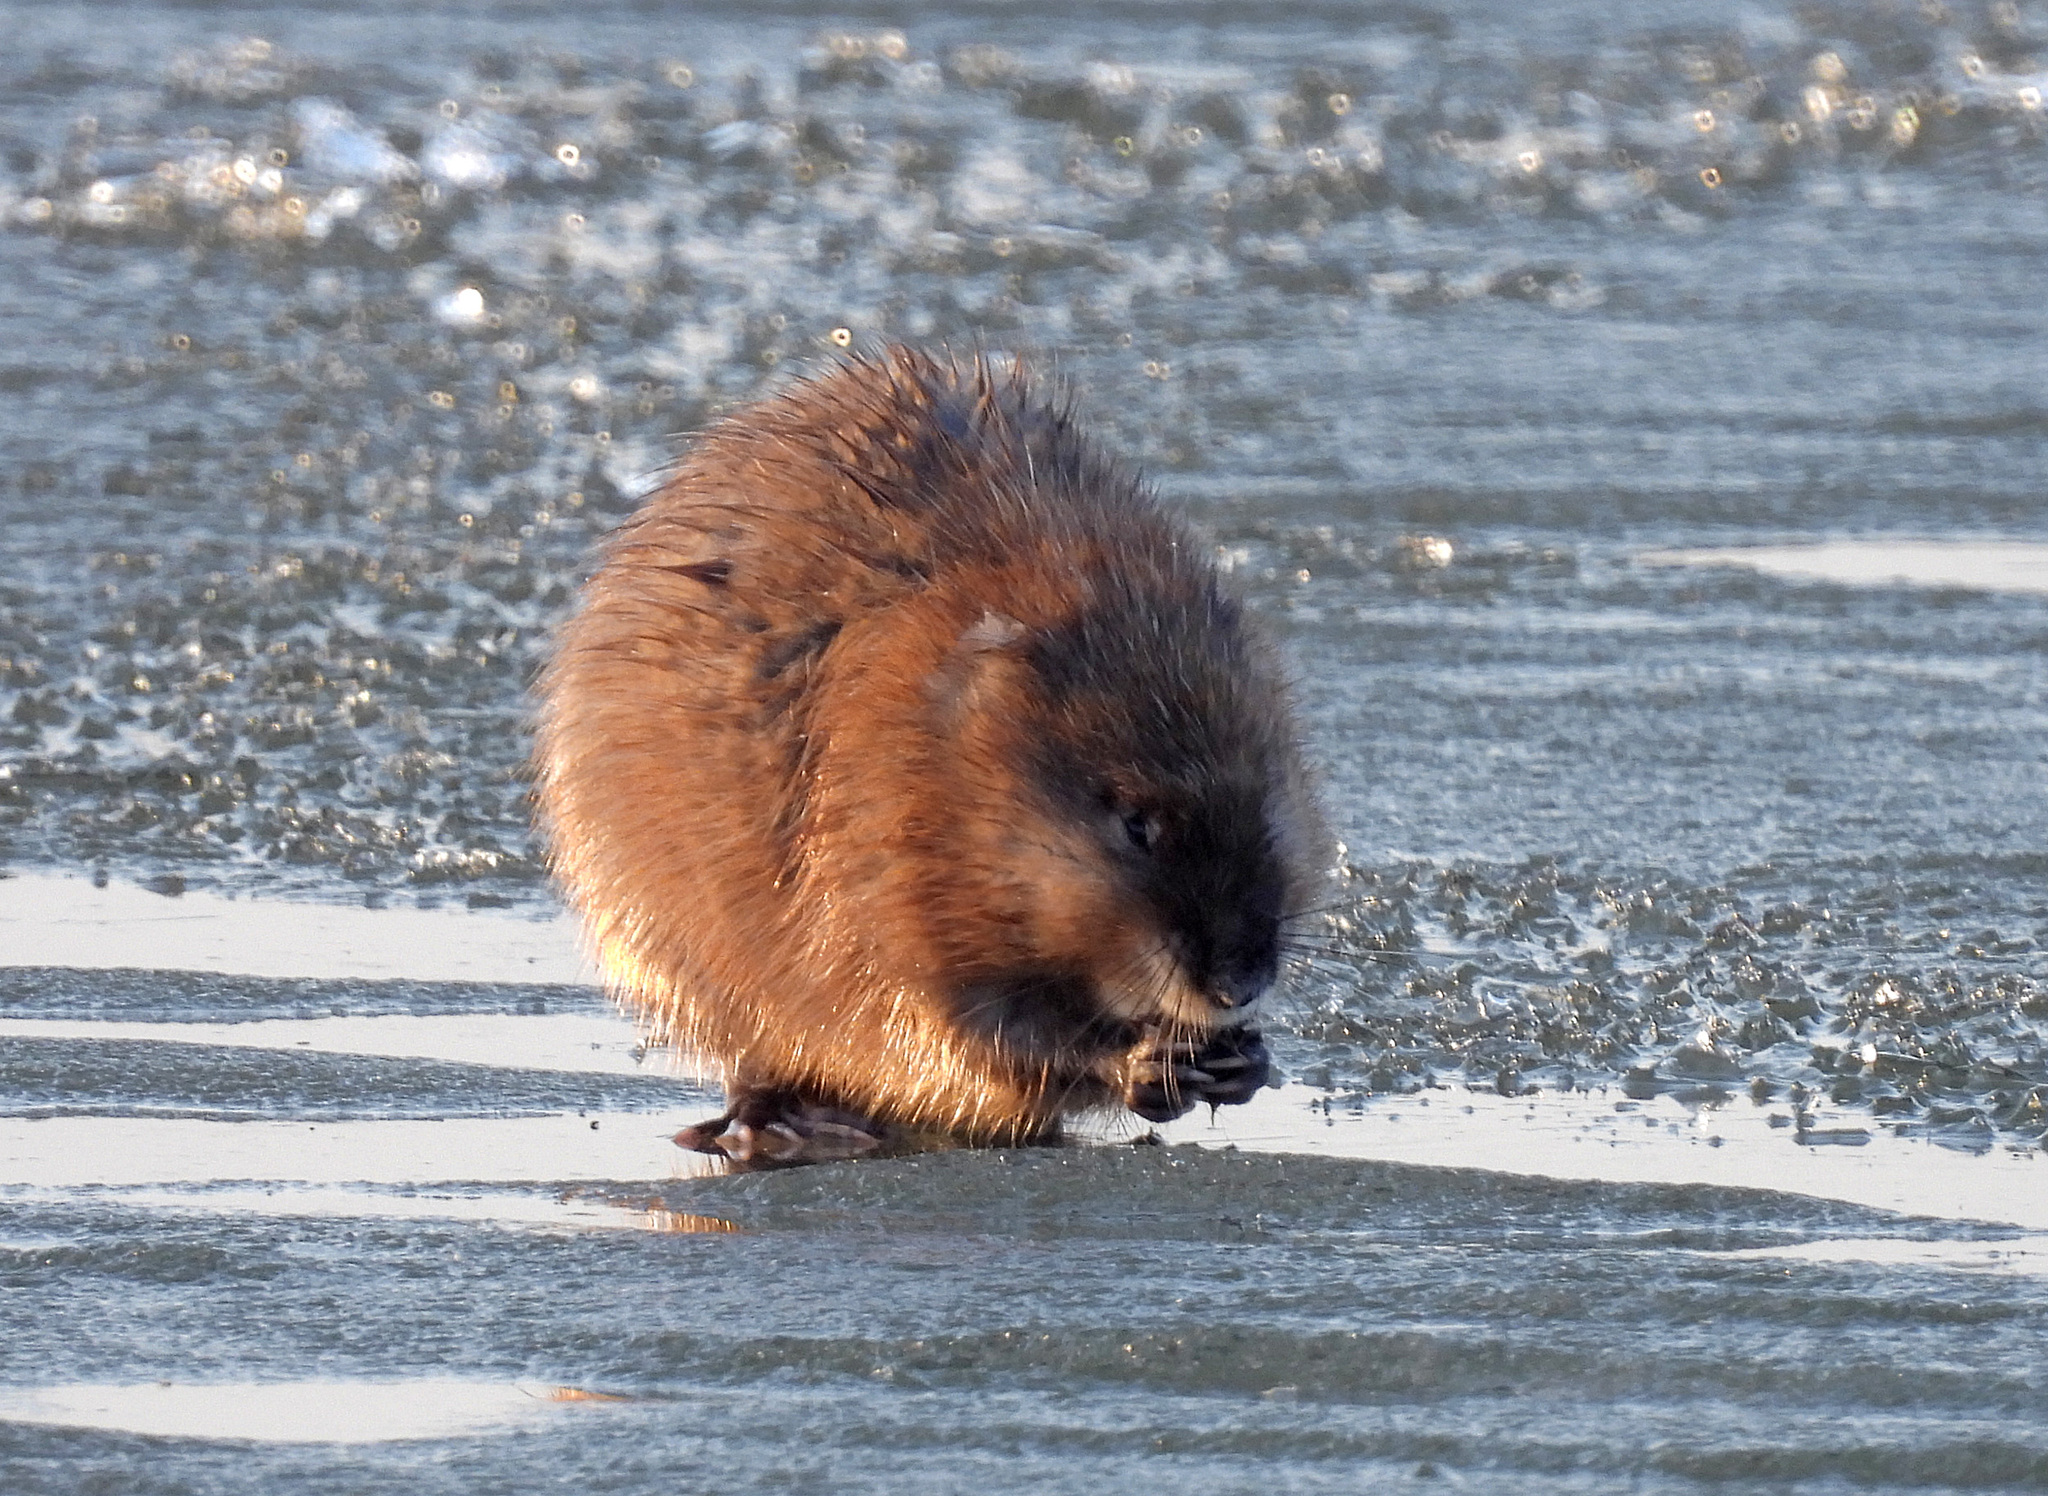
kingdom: Animalia
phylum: Chordata
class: Mammalia
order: Rodentia
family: Cricetidae
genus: Ondatra
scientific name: Ondatra zibethicus
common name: Muskrat
